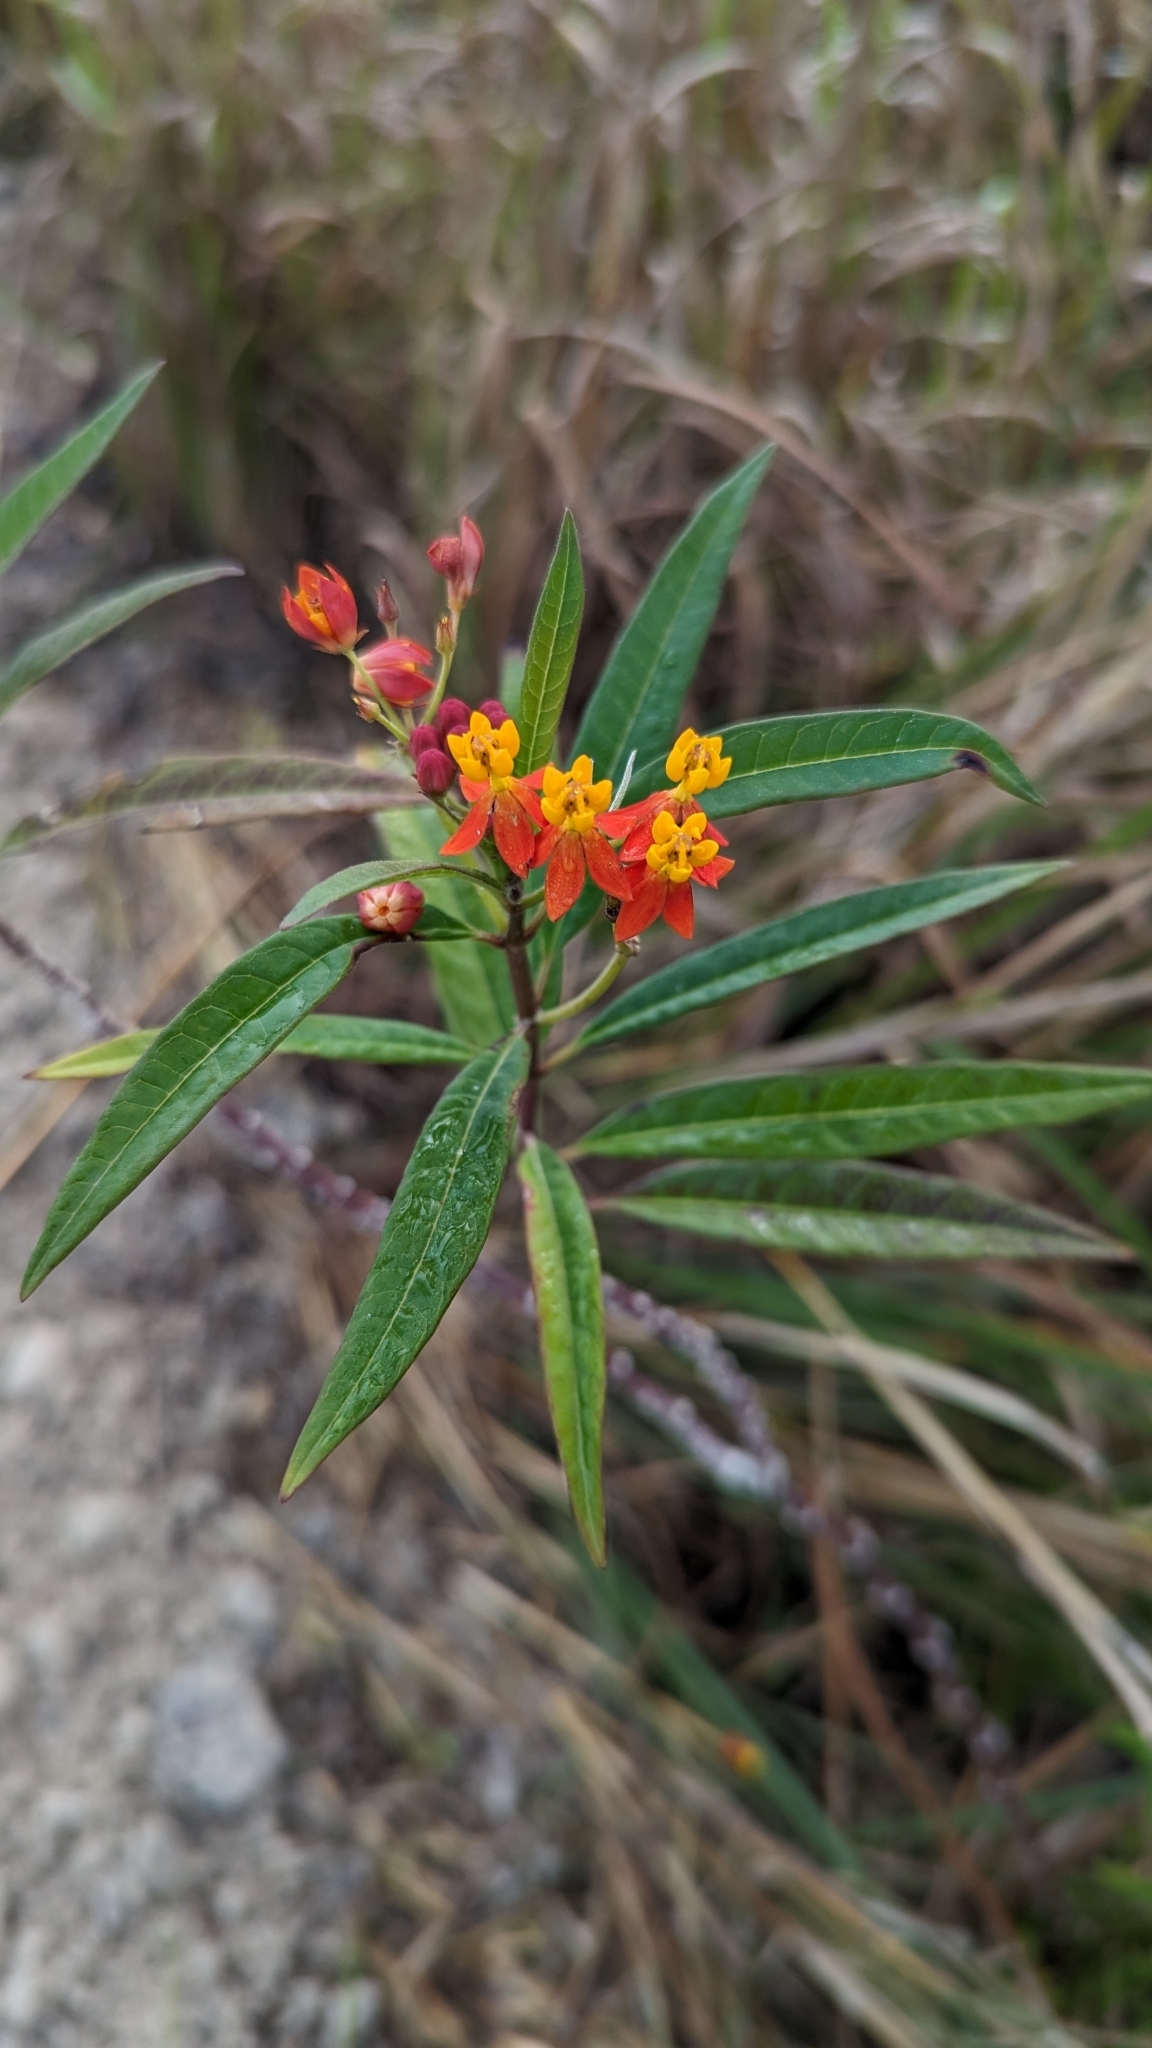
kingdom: Plantae
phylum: Tracheophyta
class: Magnoliopsida
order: Gentianales
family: Apocynaceae
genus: Asclepias
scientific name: Asclepias curassavica
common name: Bloodflower
